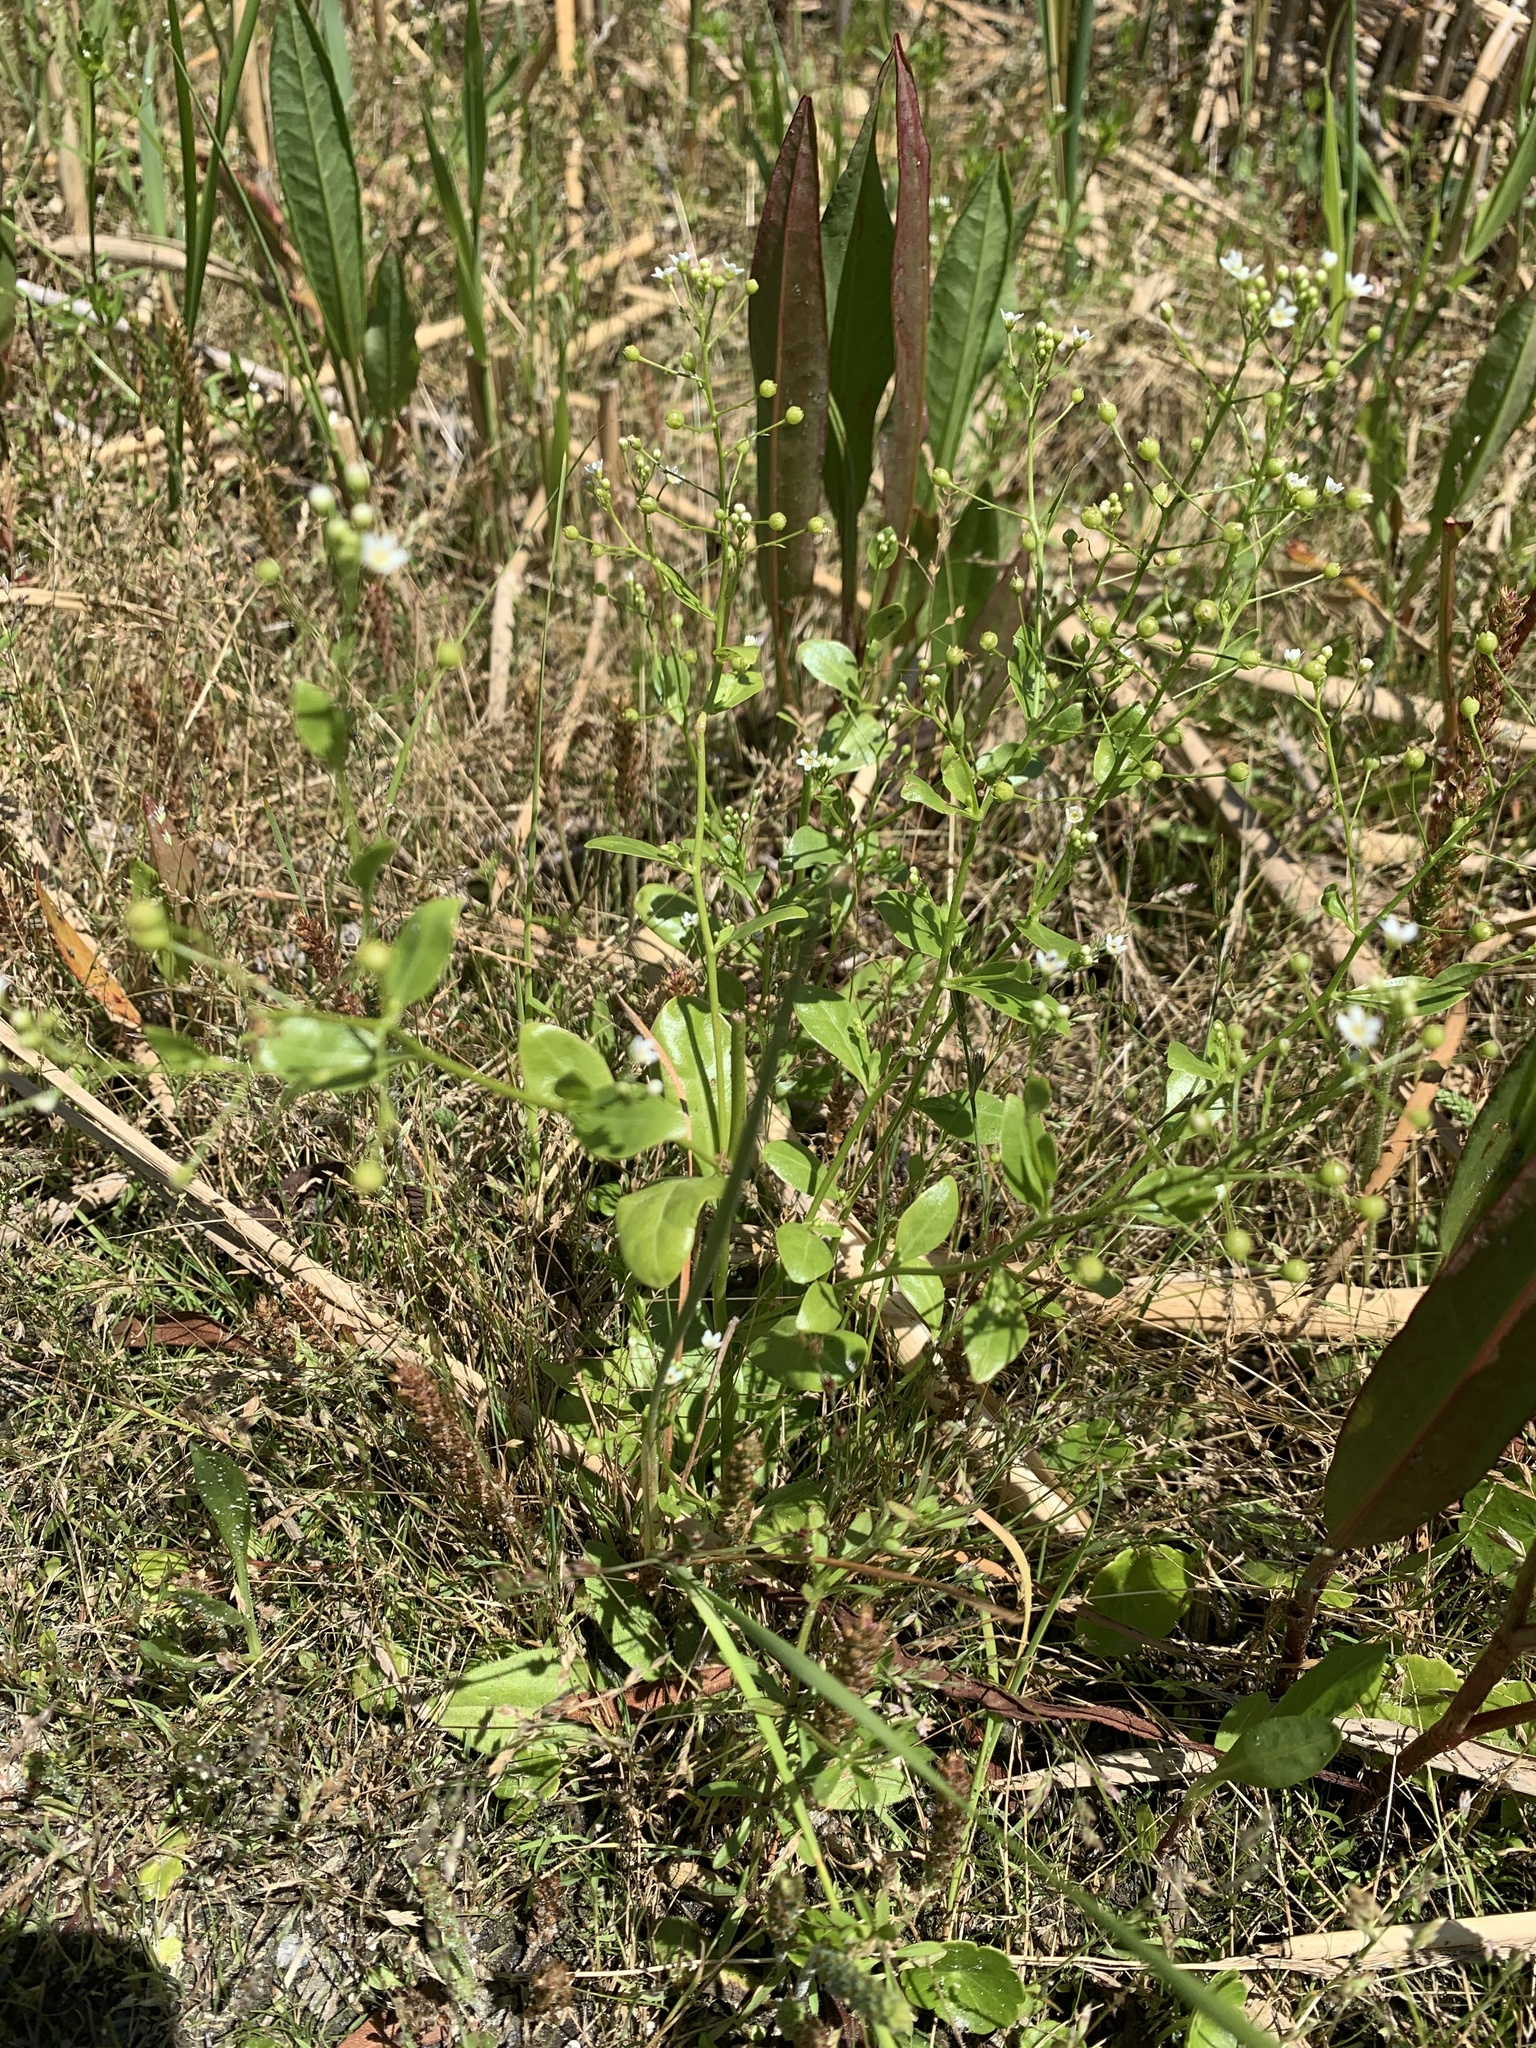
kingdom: Plantae
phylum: Tracheophyta
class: Magnoliopsida
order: Ericales
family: Primulaceae
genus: Samolus
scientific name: Samolus parviflorus
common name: False water pimpernel
